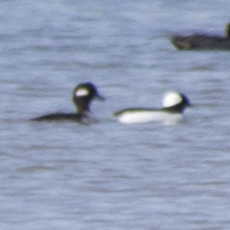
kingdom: Animalia
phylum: Chordata
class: Aves
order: Anseriformes
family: Anatidae
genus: Bucephala
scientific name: Bucephala albeola
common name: Bufflehead
